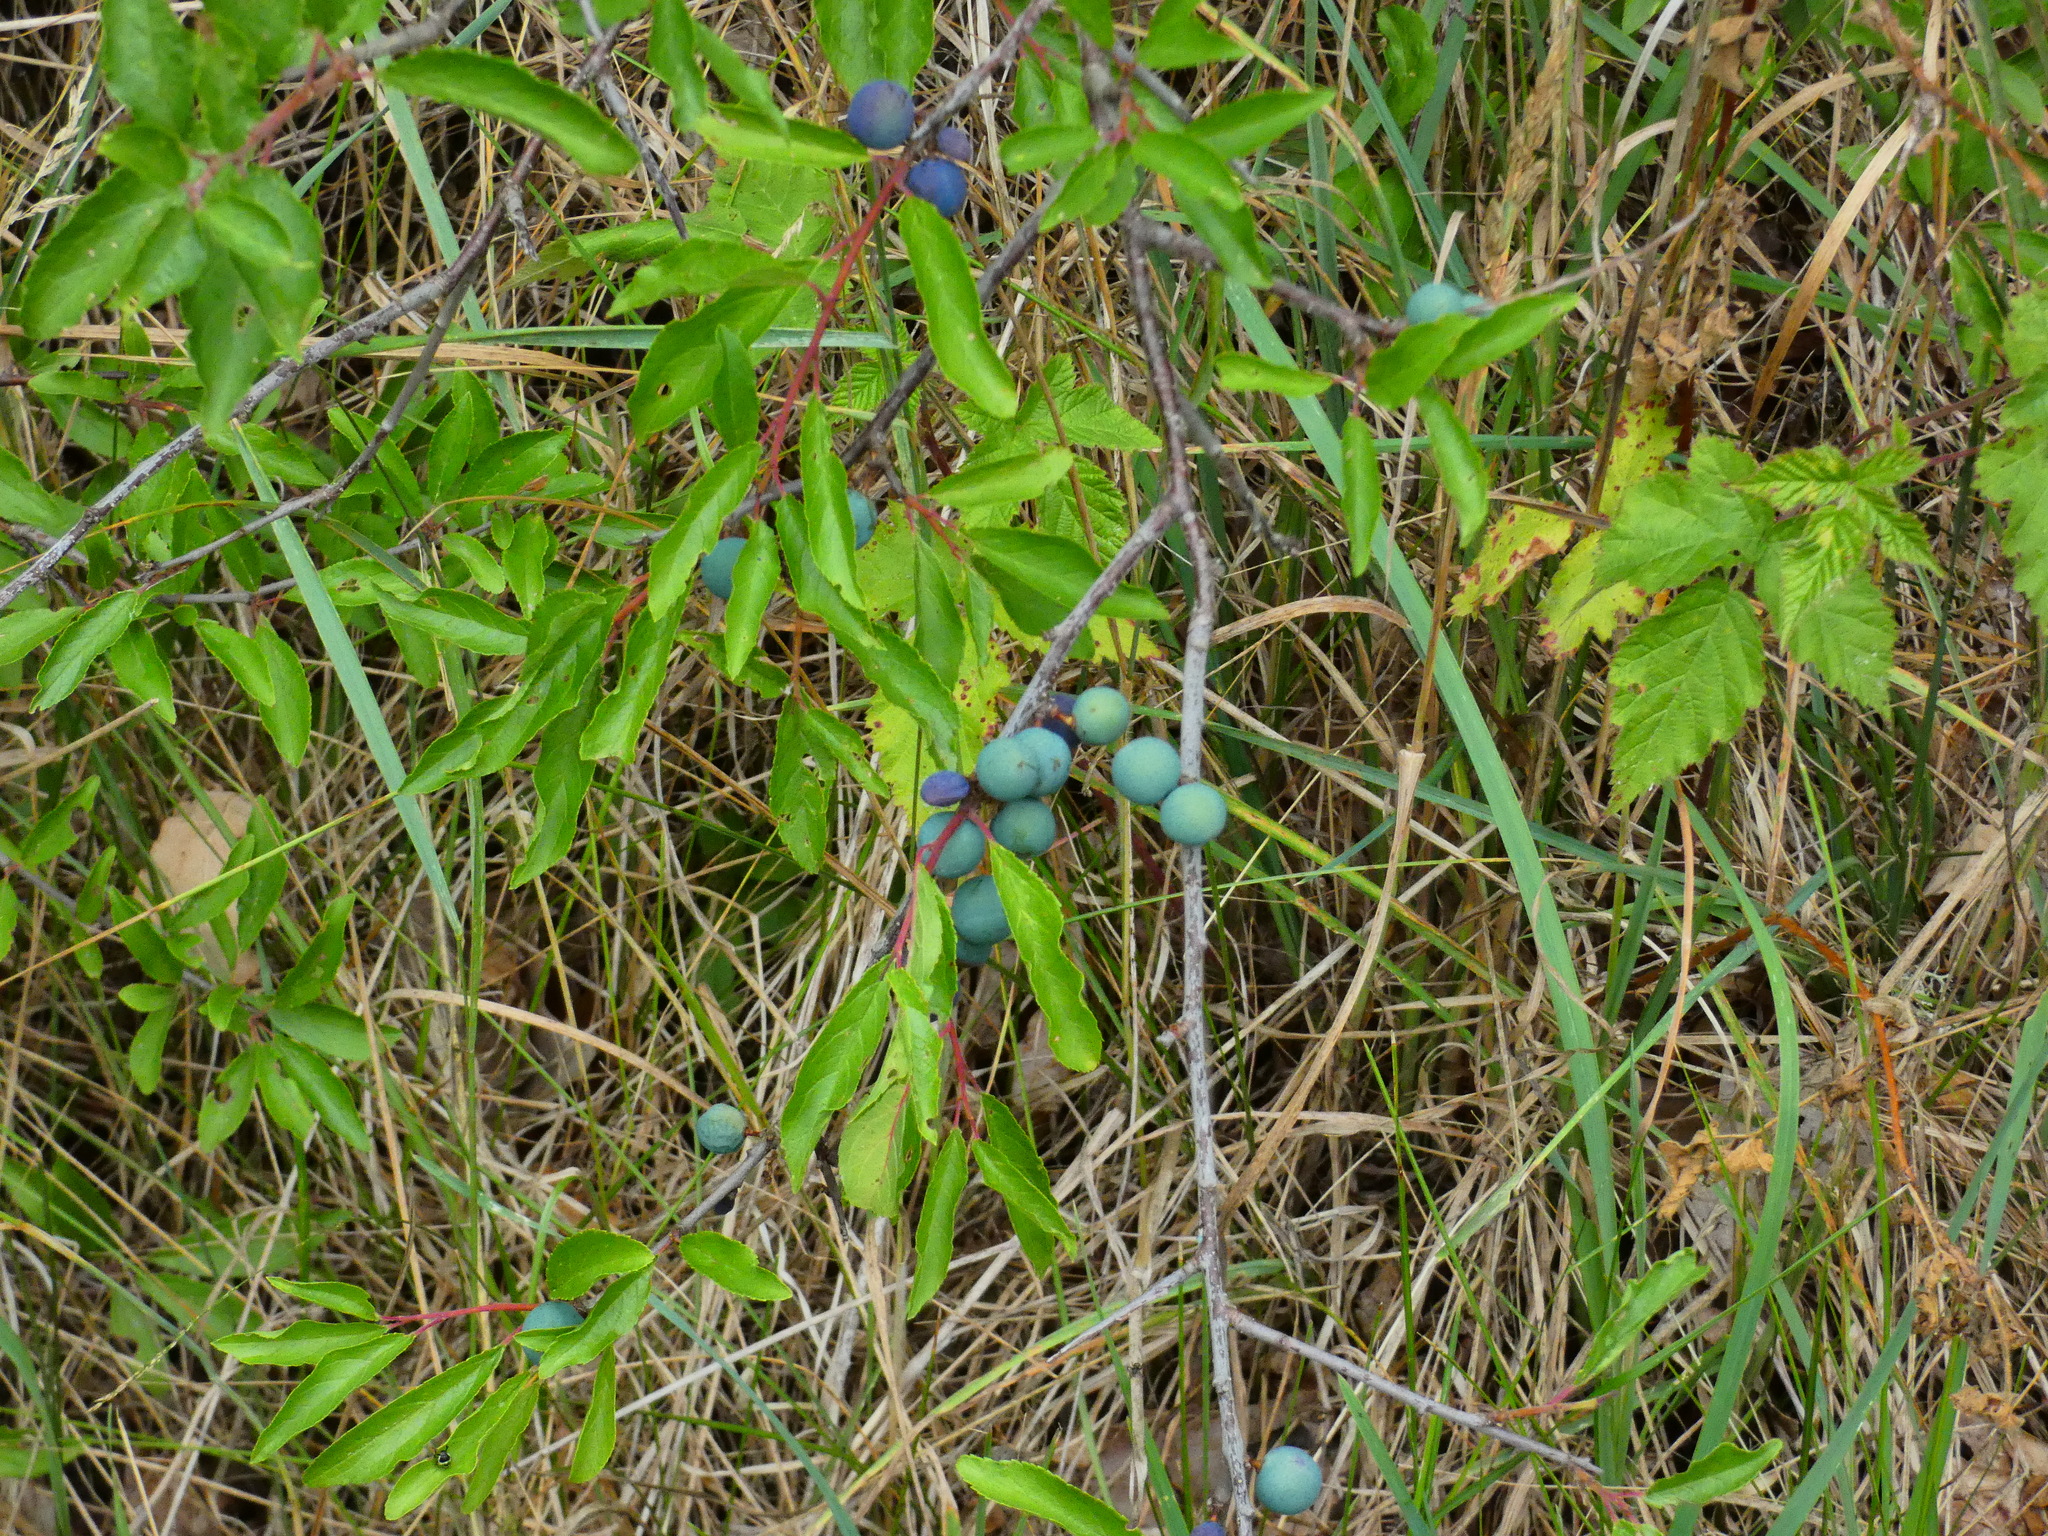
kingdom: Plantae
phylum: Tracheophyta
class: Magnoliopsida
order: Rosales
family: Rosaceae
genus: Prunus
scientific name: Prunus spinosa
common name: Blackthorn
